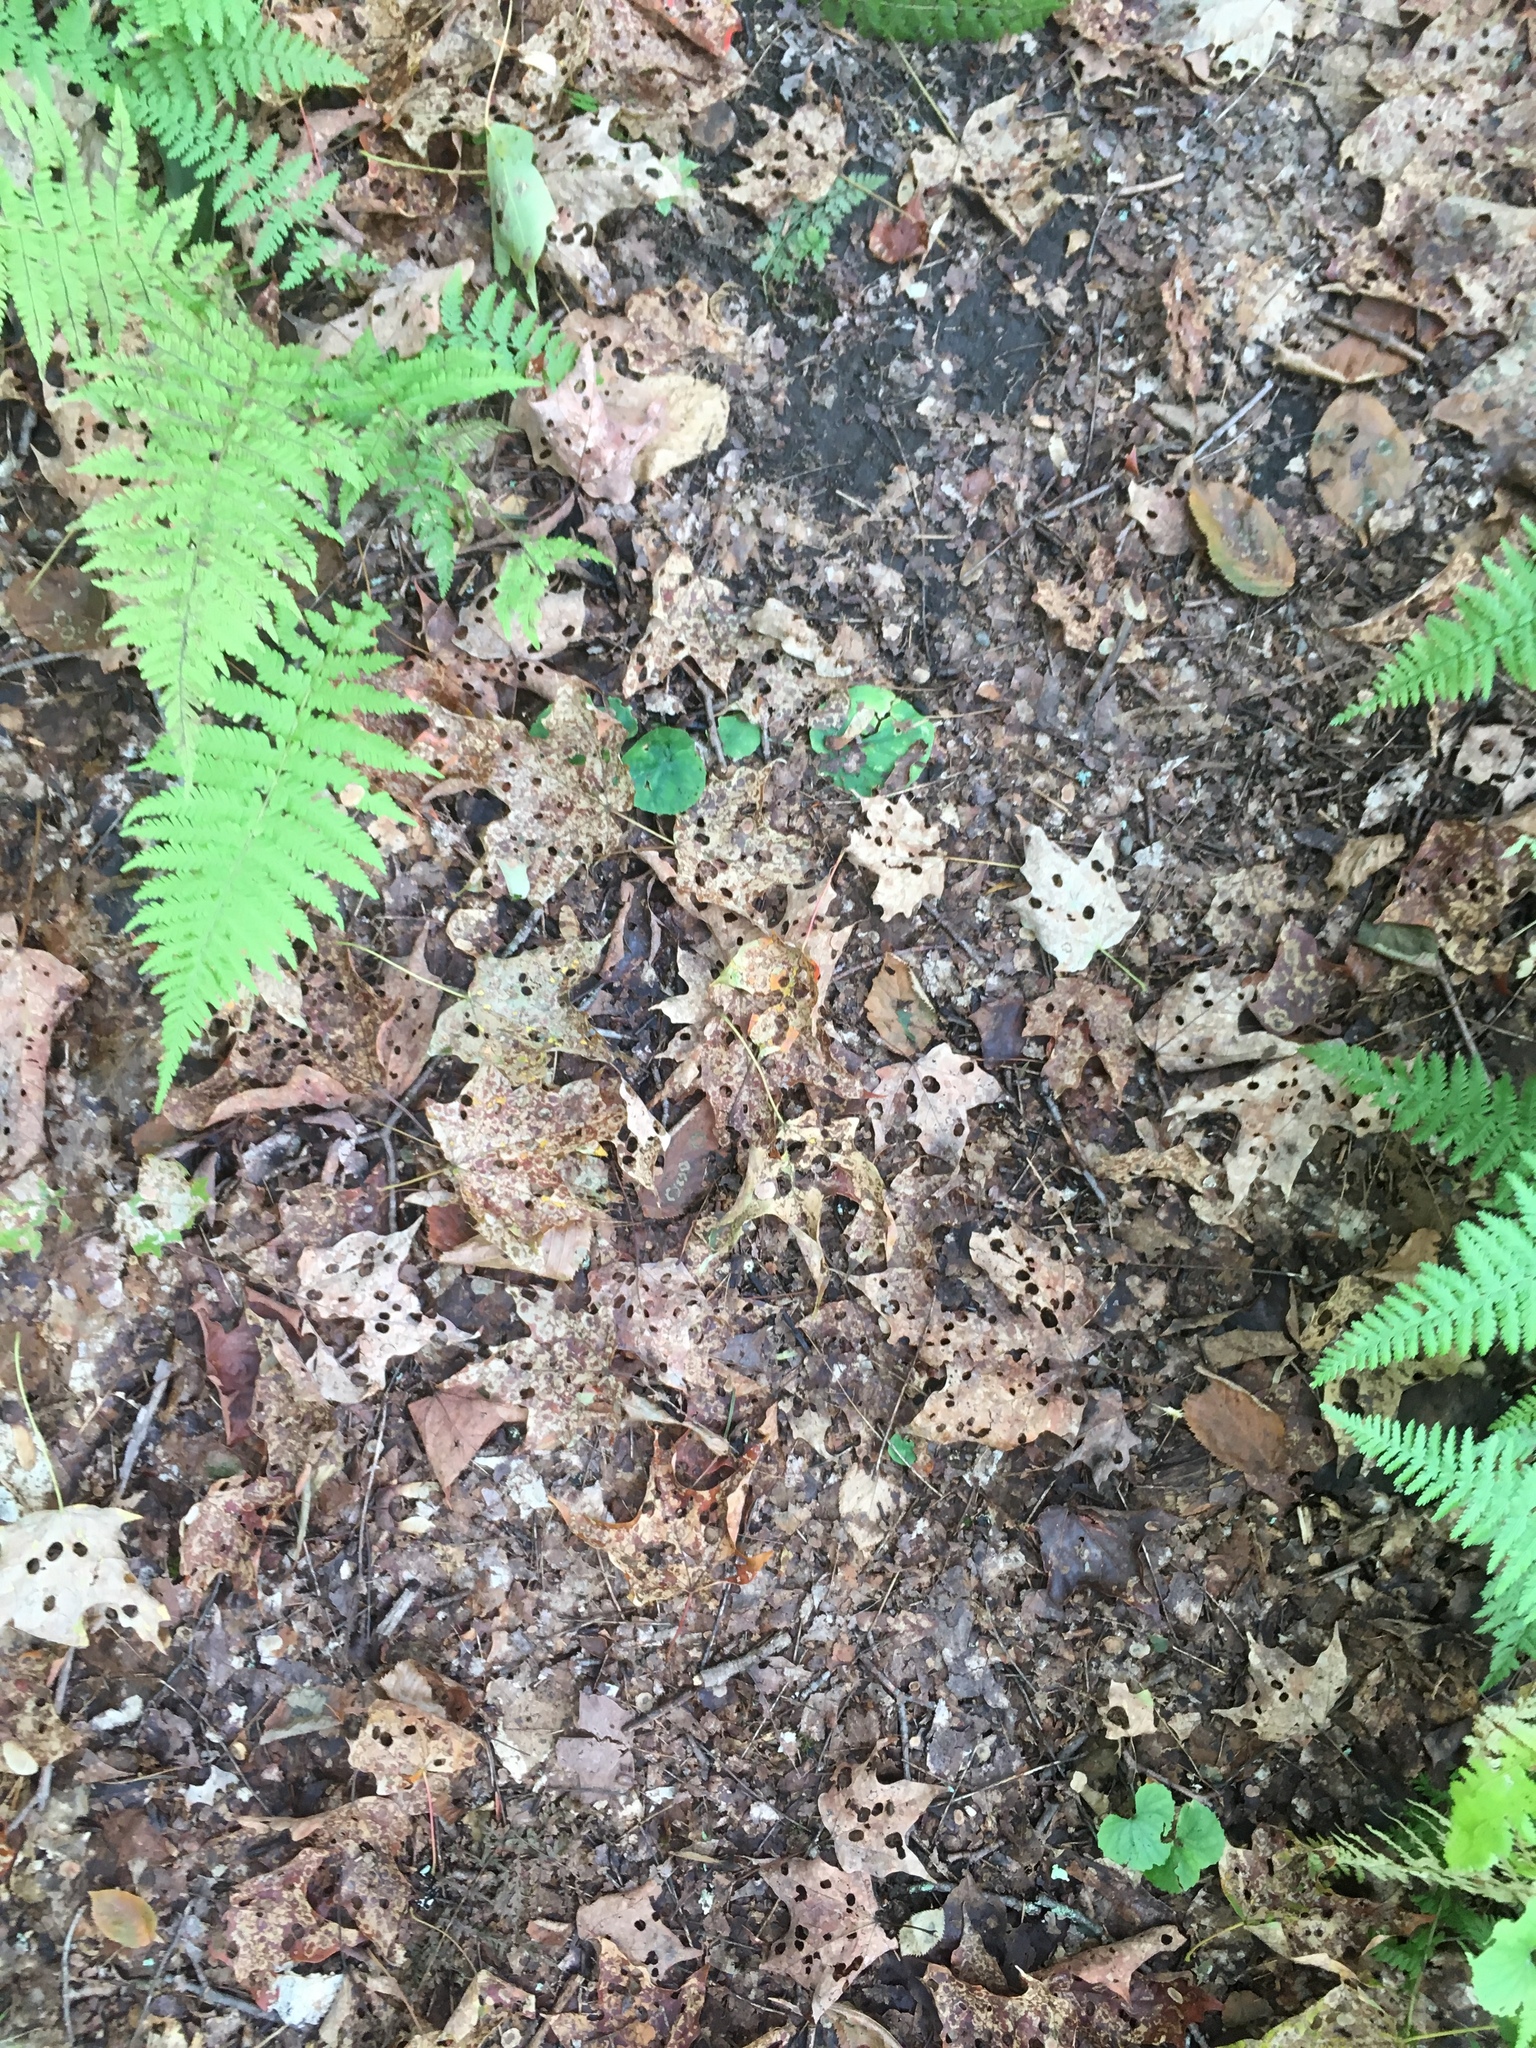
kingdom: Plantae
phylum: Tracheophyta
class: Magnoliopsida
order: Sapindales
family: Sapindaceae
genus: Acer
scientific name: Acer saccharum
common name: Sugar maple
